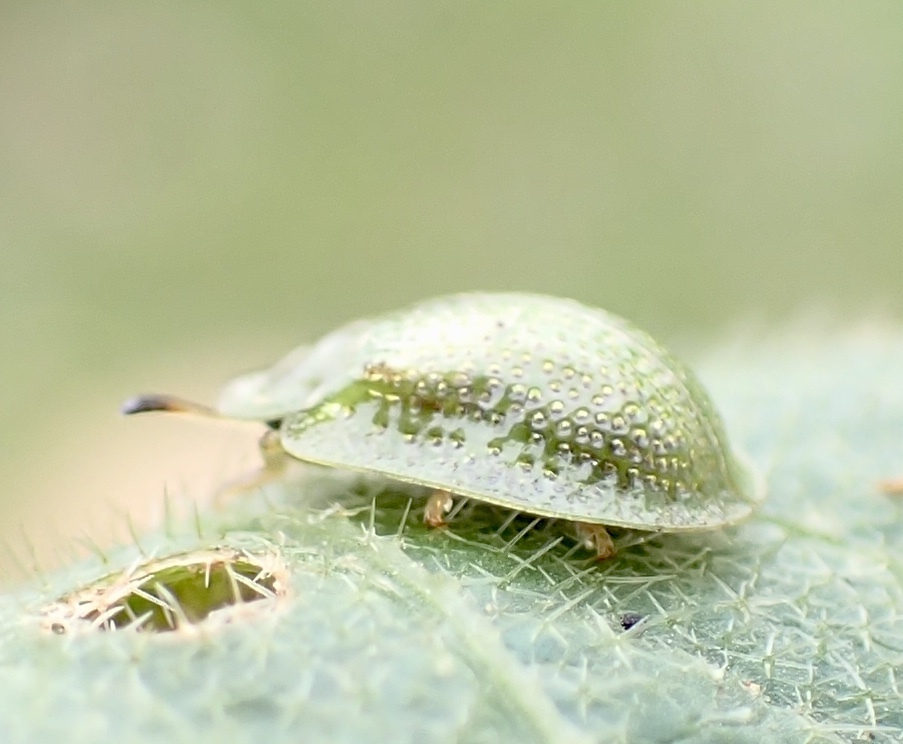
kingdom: Animalia
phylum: Arthropoda
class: Insecta
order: Coleoptera
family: Chrysomelidae
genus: Gratiana
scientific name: Gratiana pallidula
